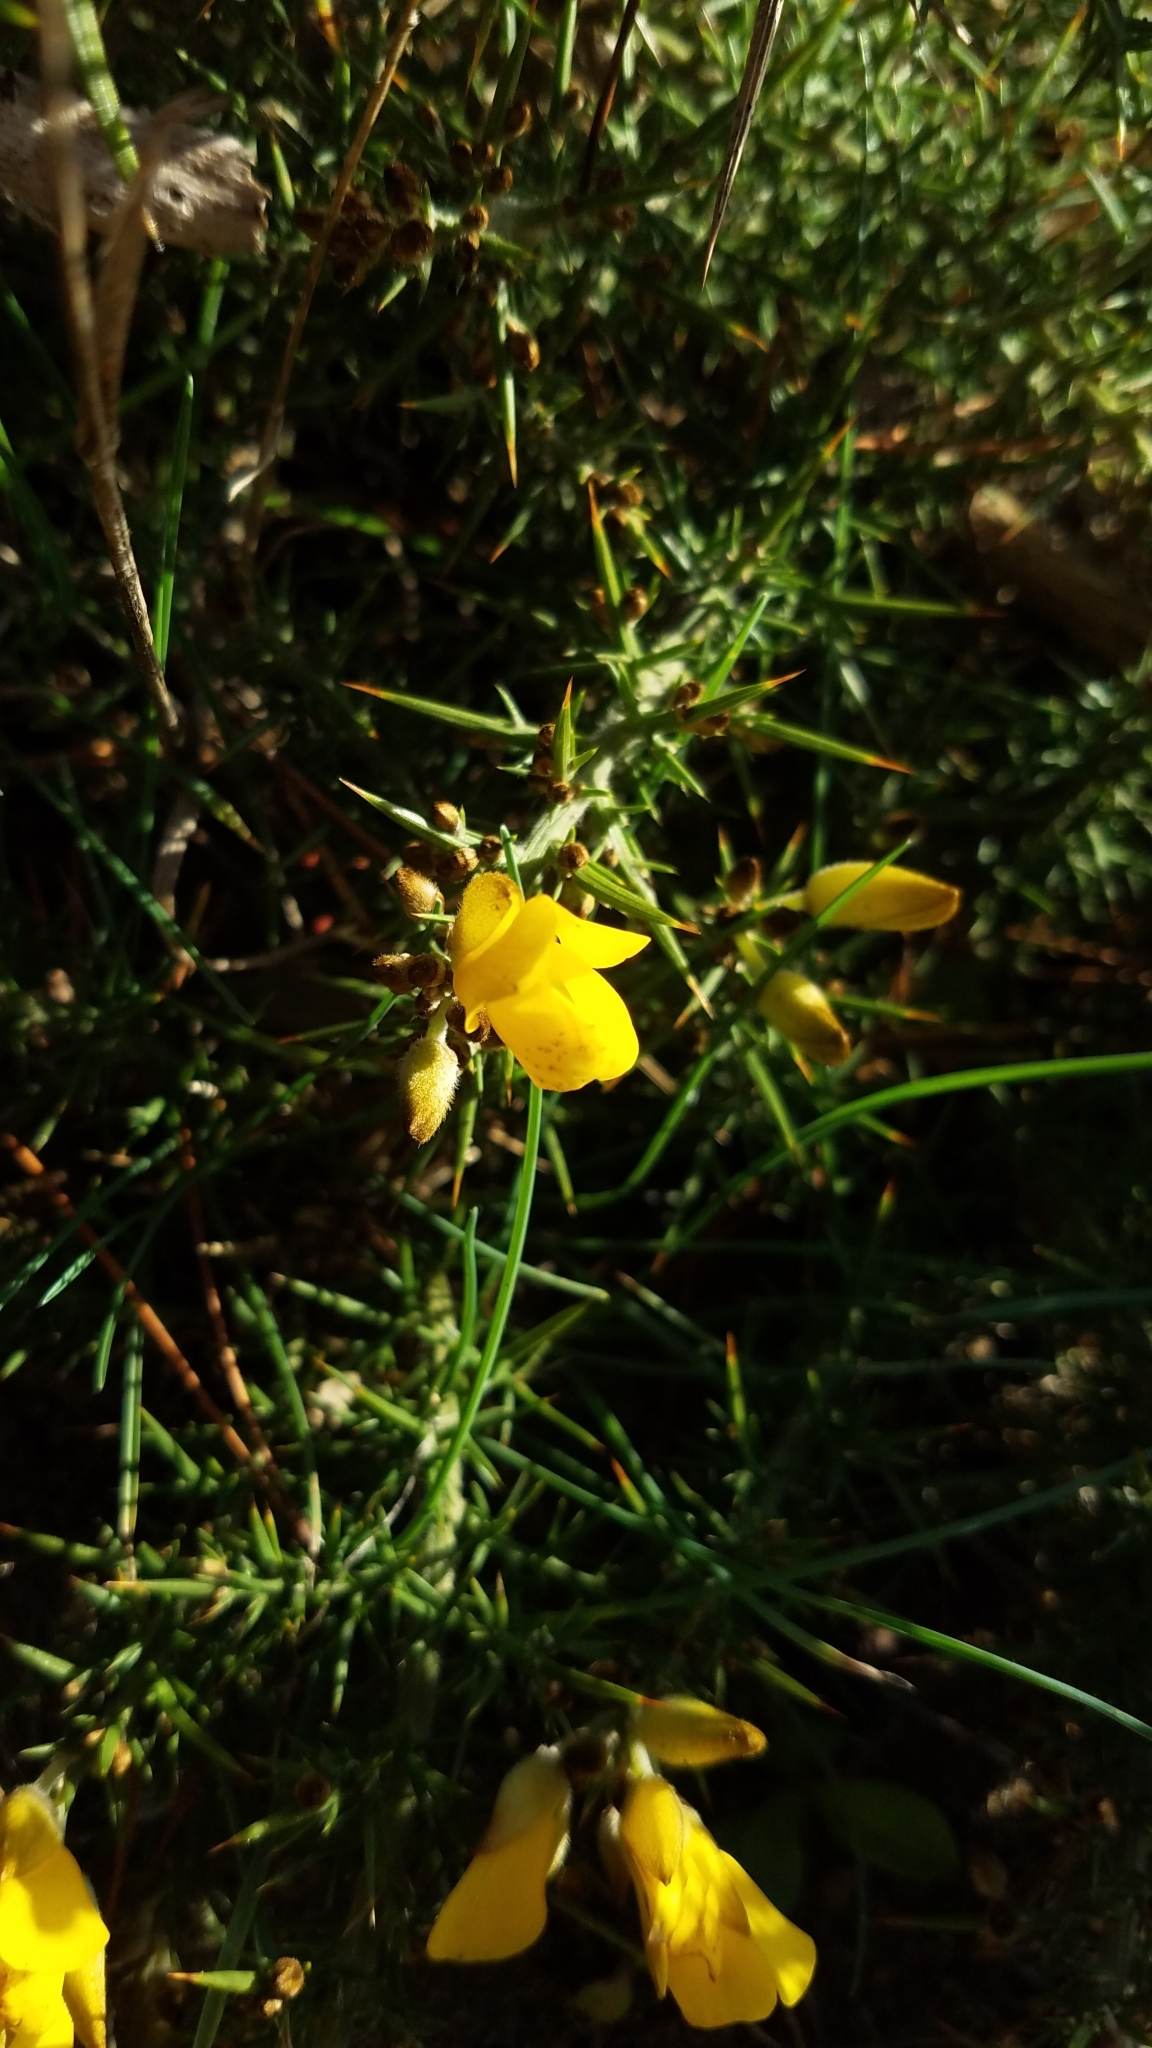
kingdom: Plantae
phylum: Tracheophyta
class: Magnoliopsida
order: Fabales
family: Fabaceae
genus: Ulex
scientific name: Ulex europaeus
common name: Common gorse
